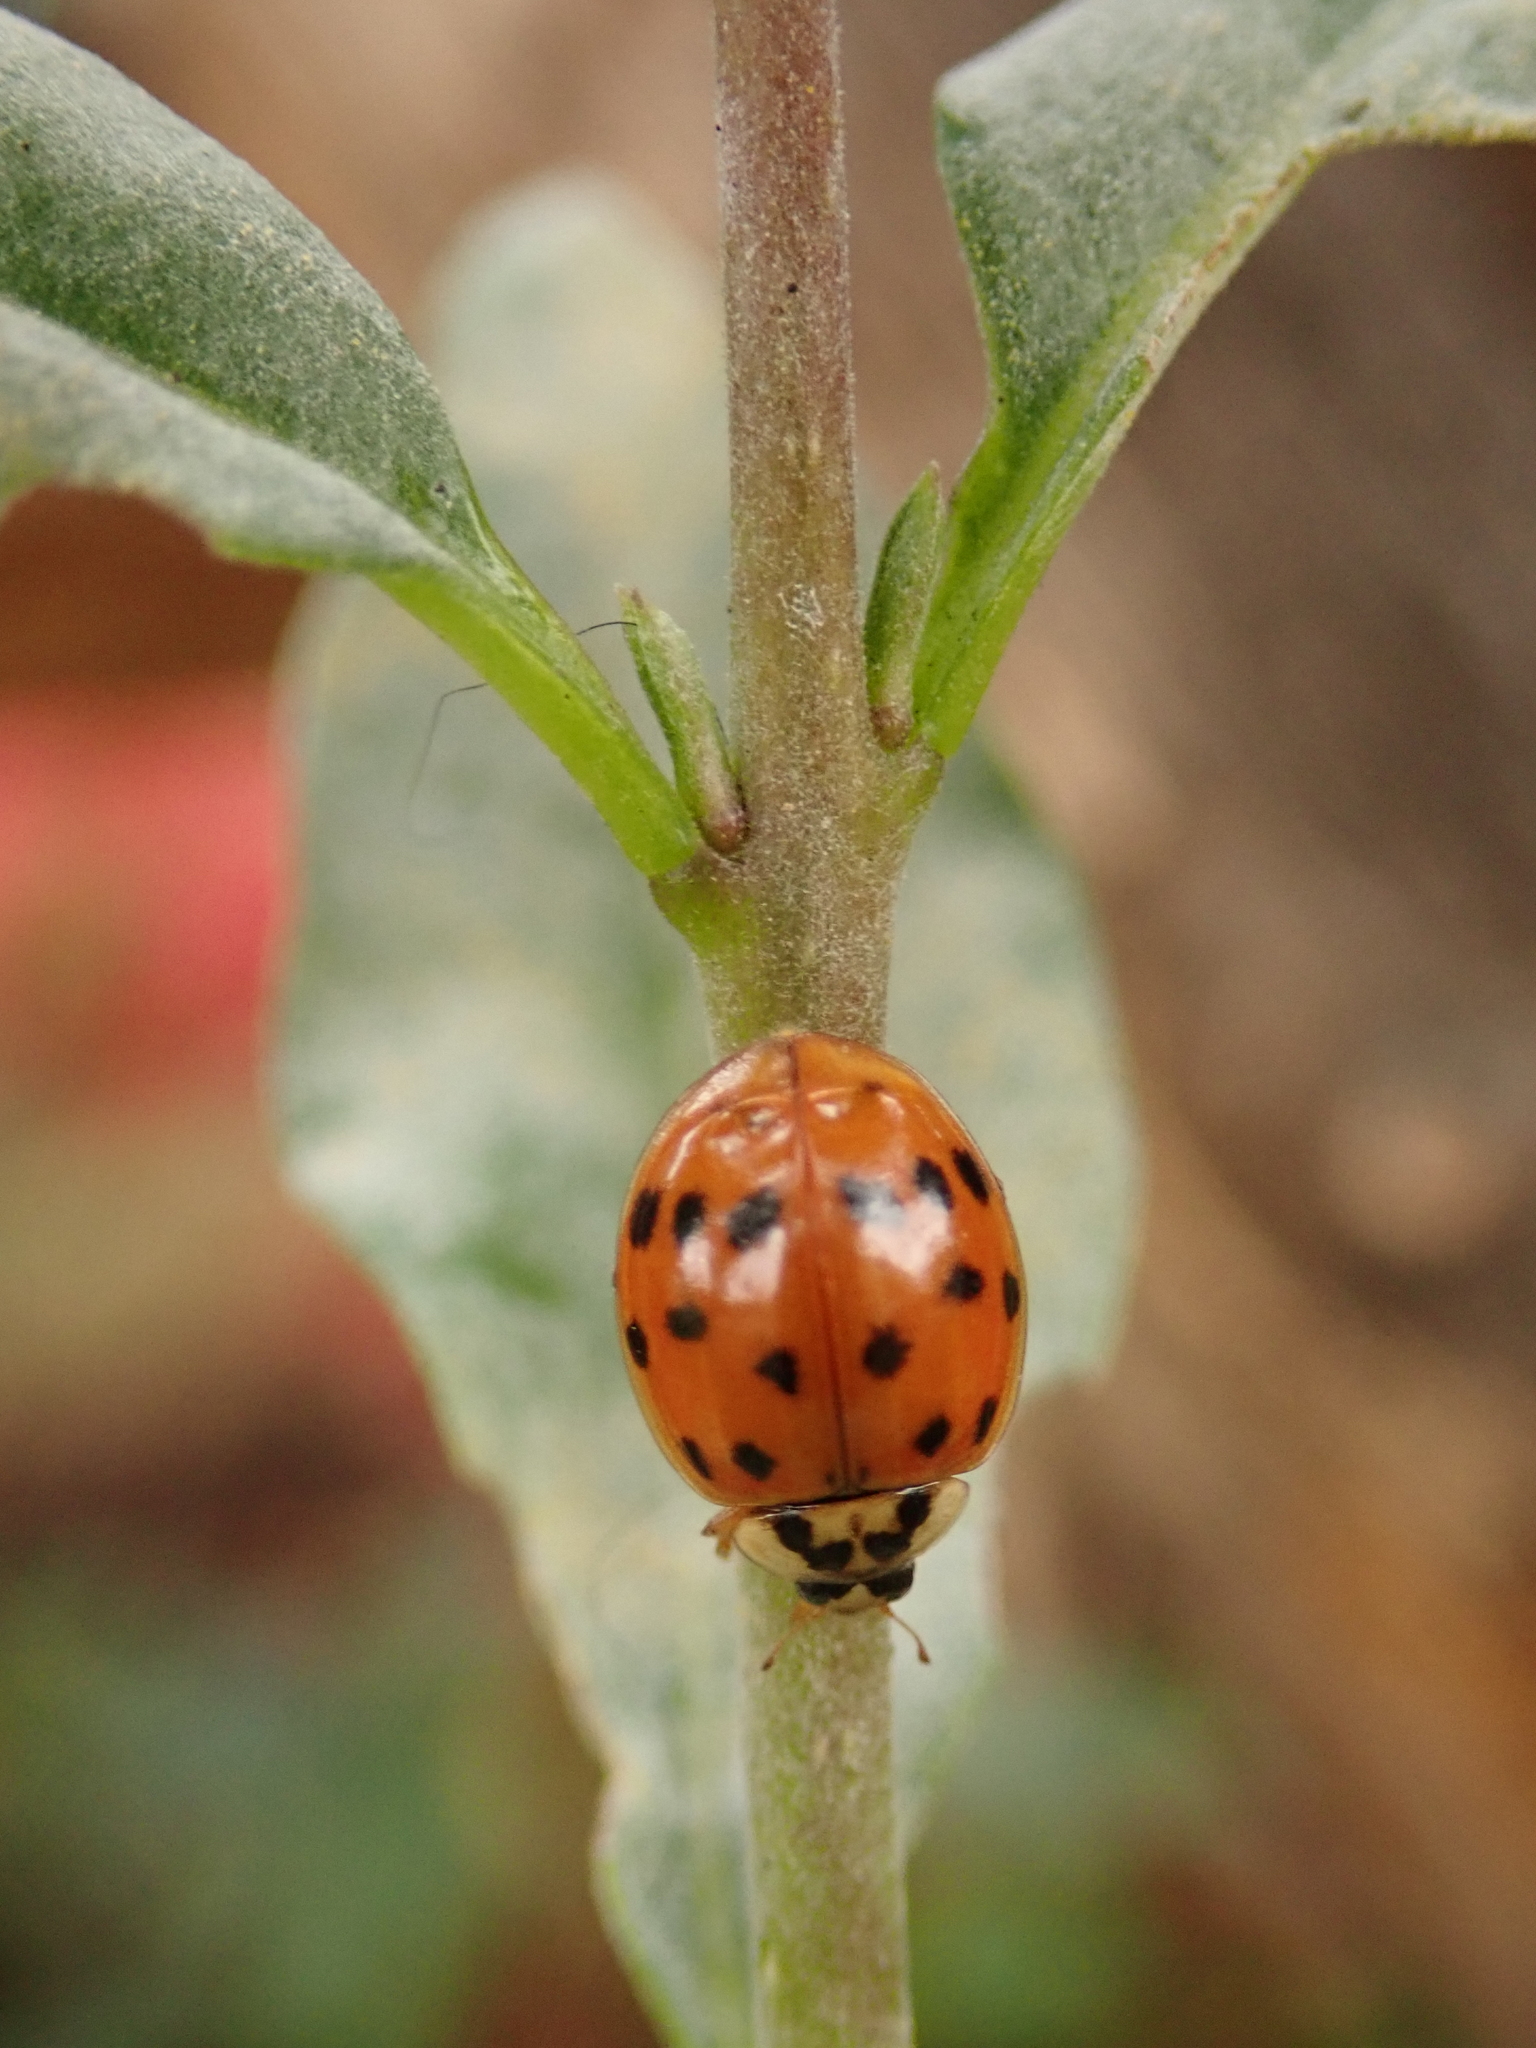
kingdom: Animalia
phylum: Arthropoda
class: Insecta
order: Coleoptera
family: Coccinellidae
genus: Harmonia
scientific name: Harmonia axyridis
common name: Harlequin ladybird
